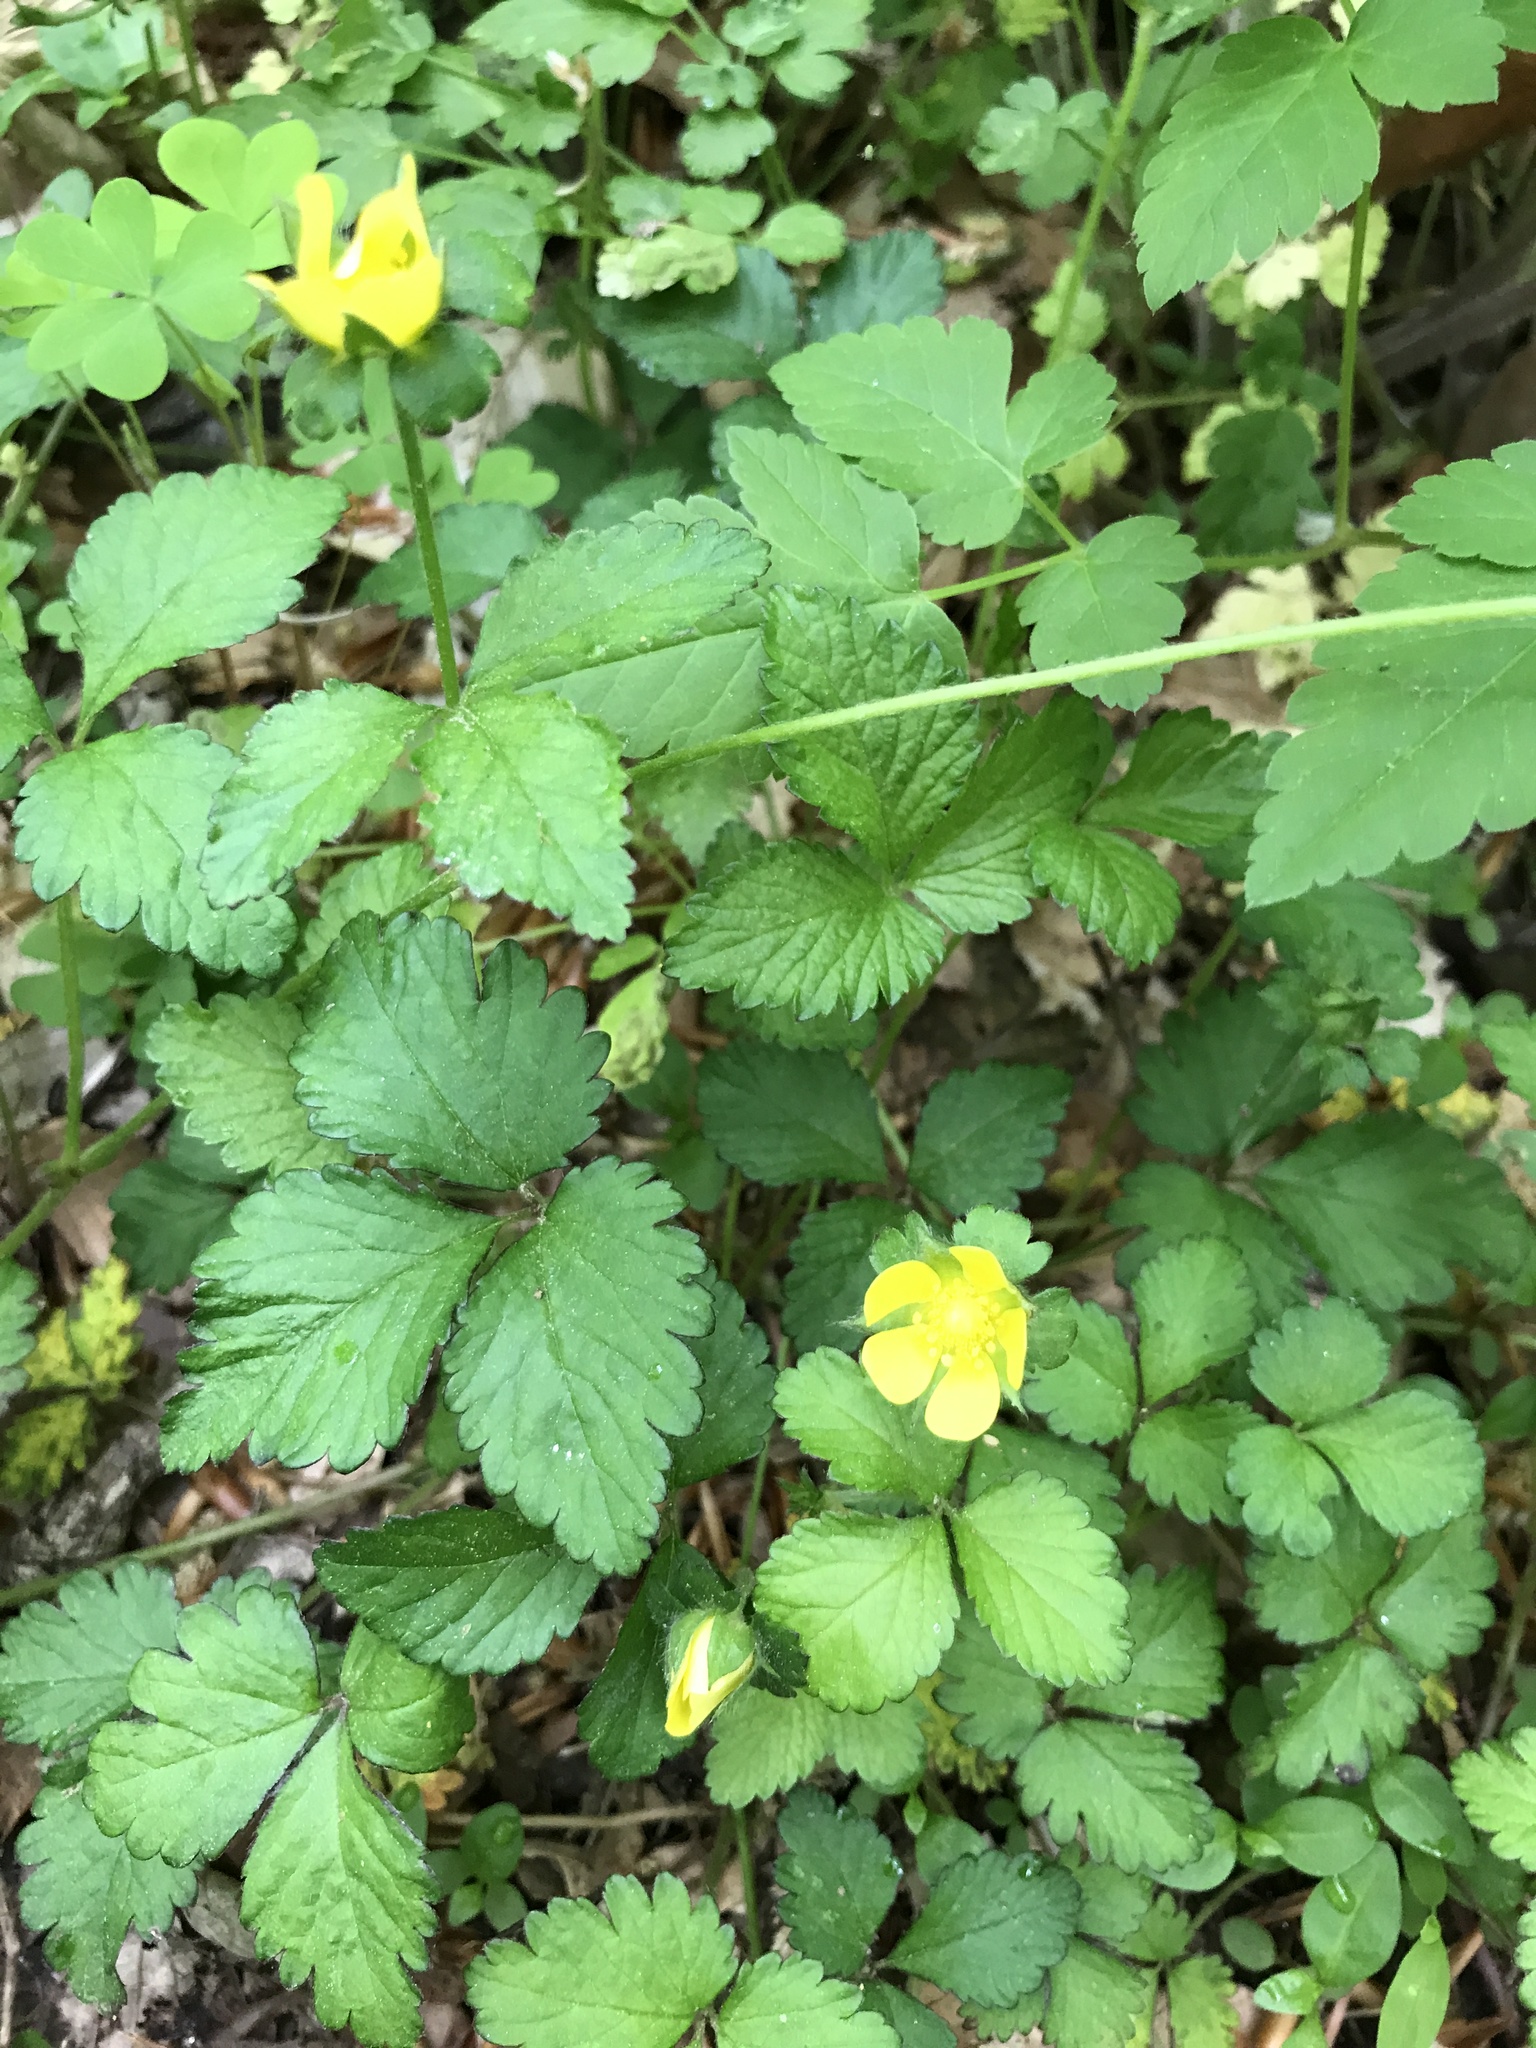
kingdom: Plantae
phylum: Tracheophyta
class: Magnoliopsida
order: Rosales
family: Rosaceae
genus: Potentilla
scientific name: Potentilla indica
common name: Yellow-flowered strawberry
